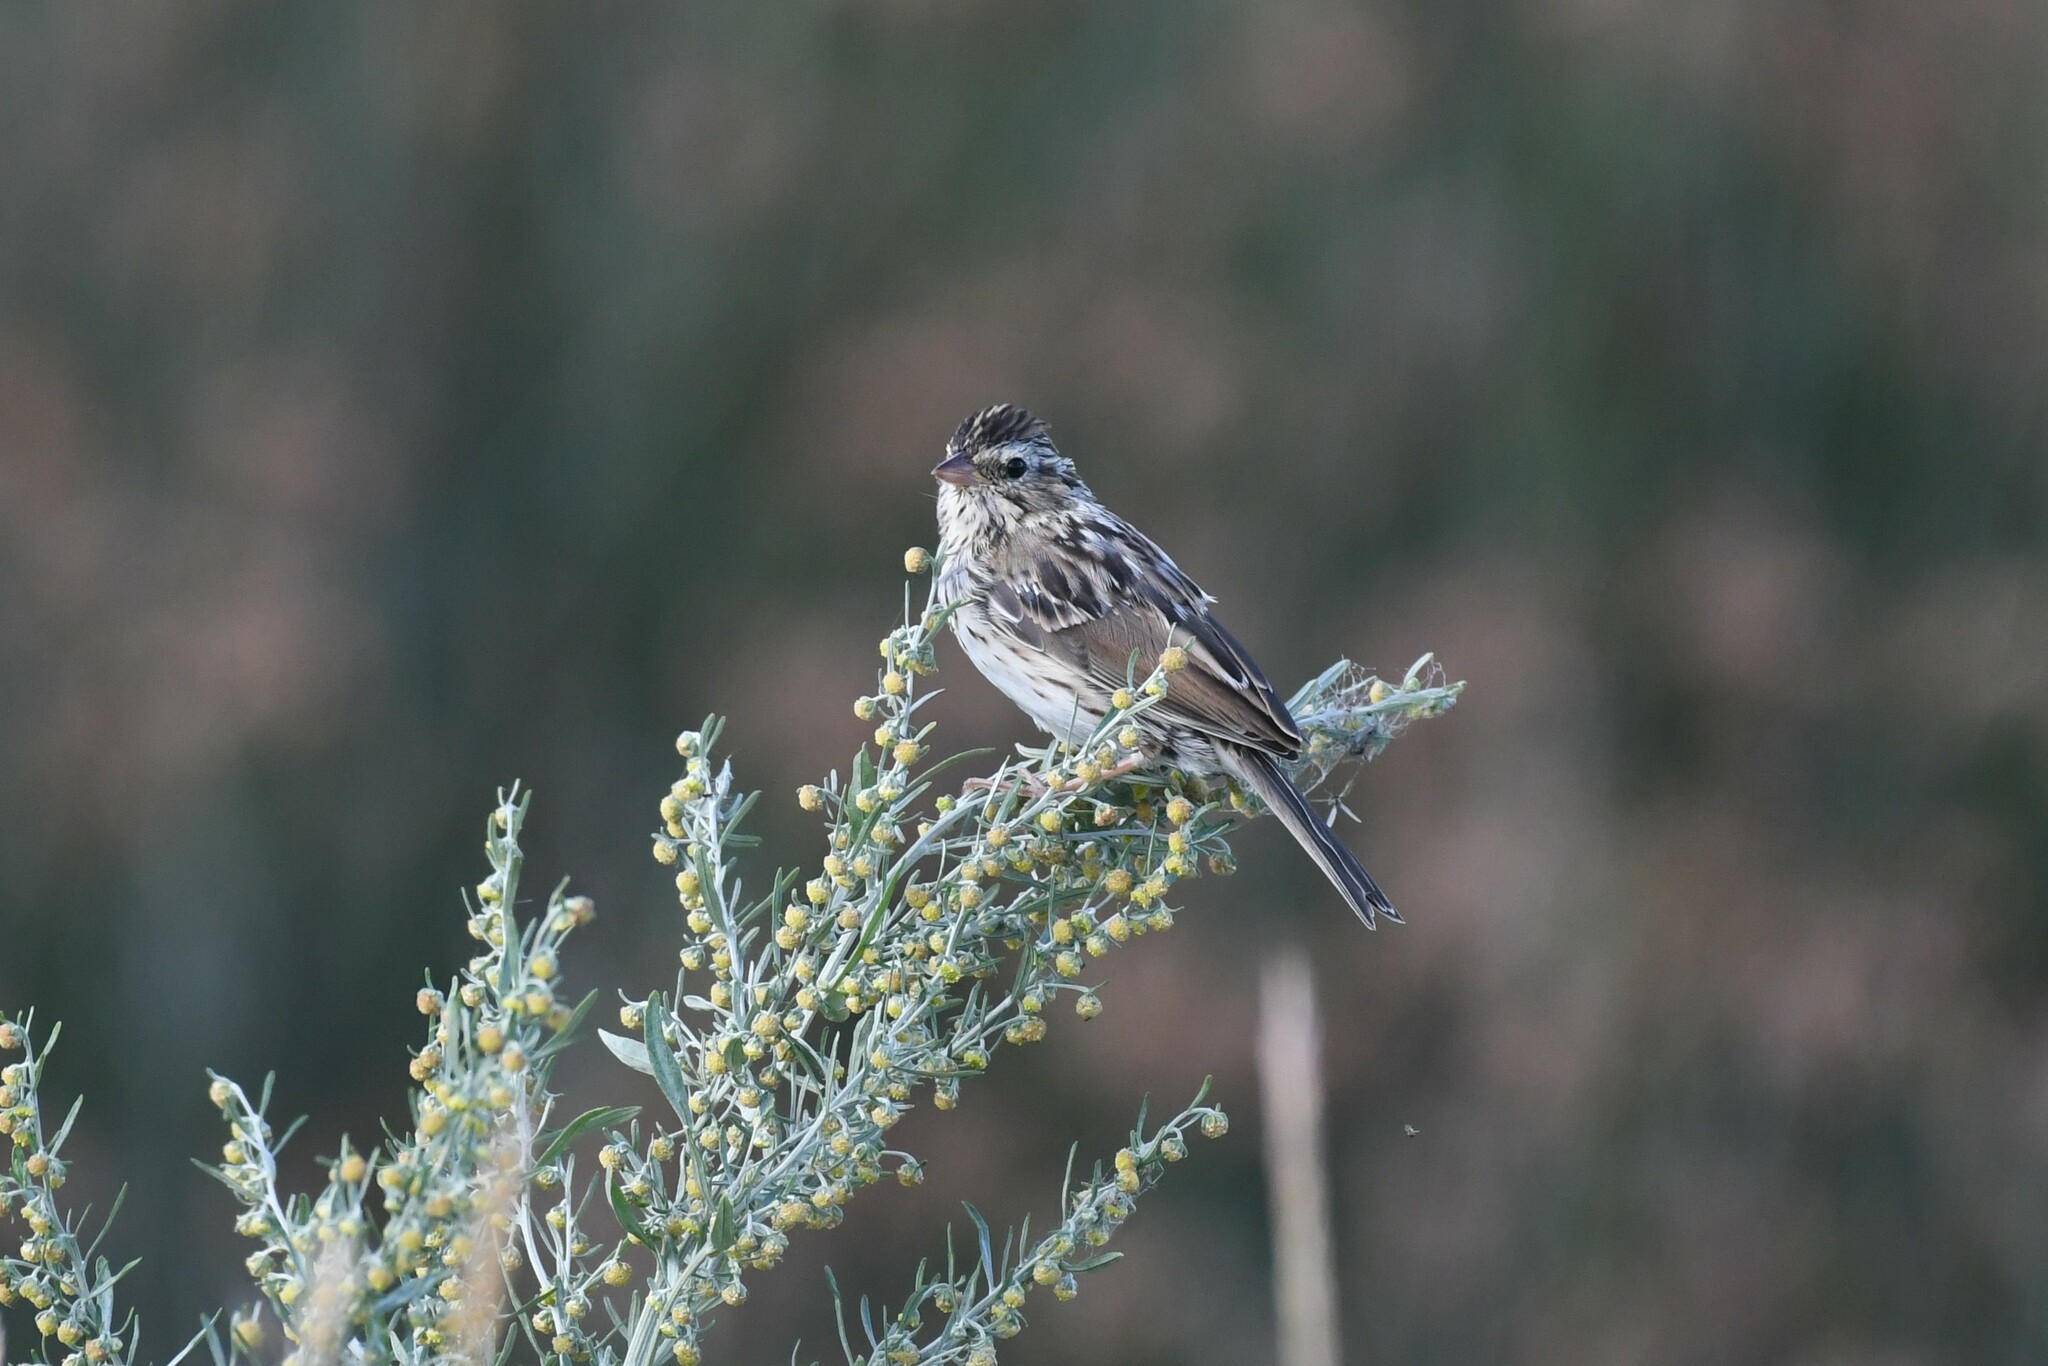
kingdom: Animalia
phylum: Chordata
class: Aves
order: Passeriformes
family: Passerellidae
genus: Passerculus
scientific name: Passerculus sandwichensis
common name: Savannah sparrow
